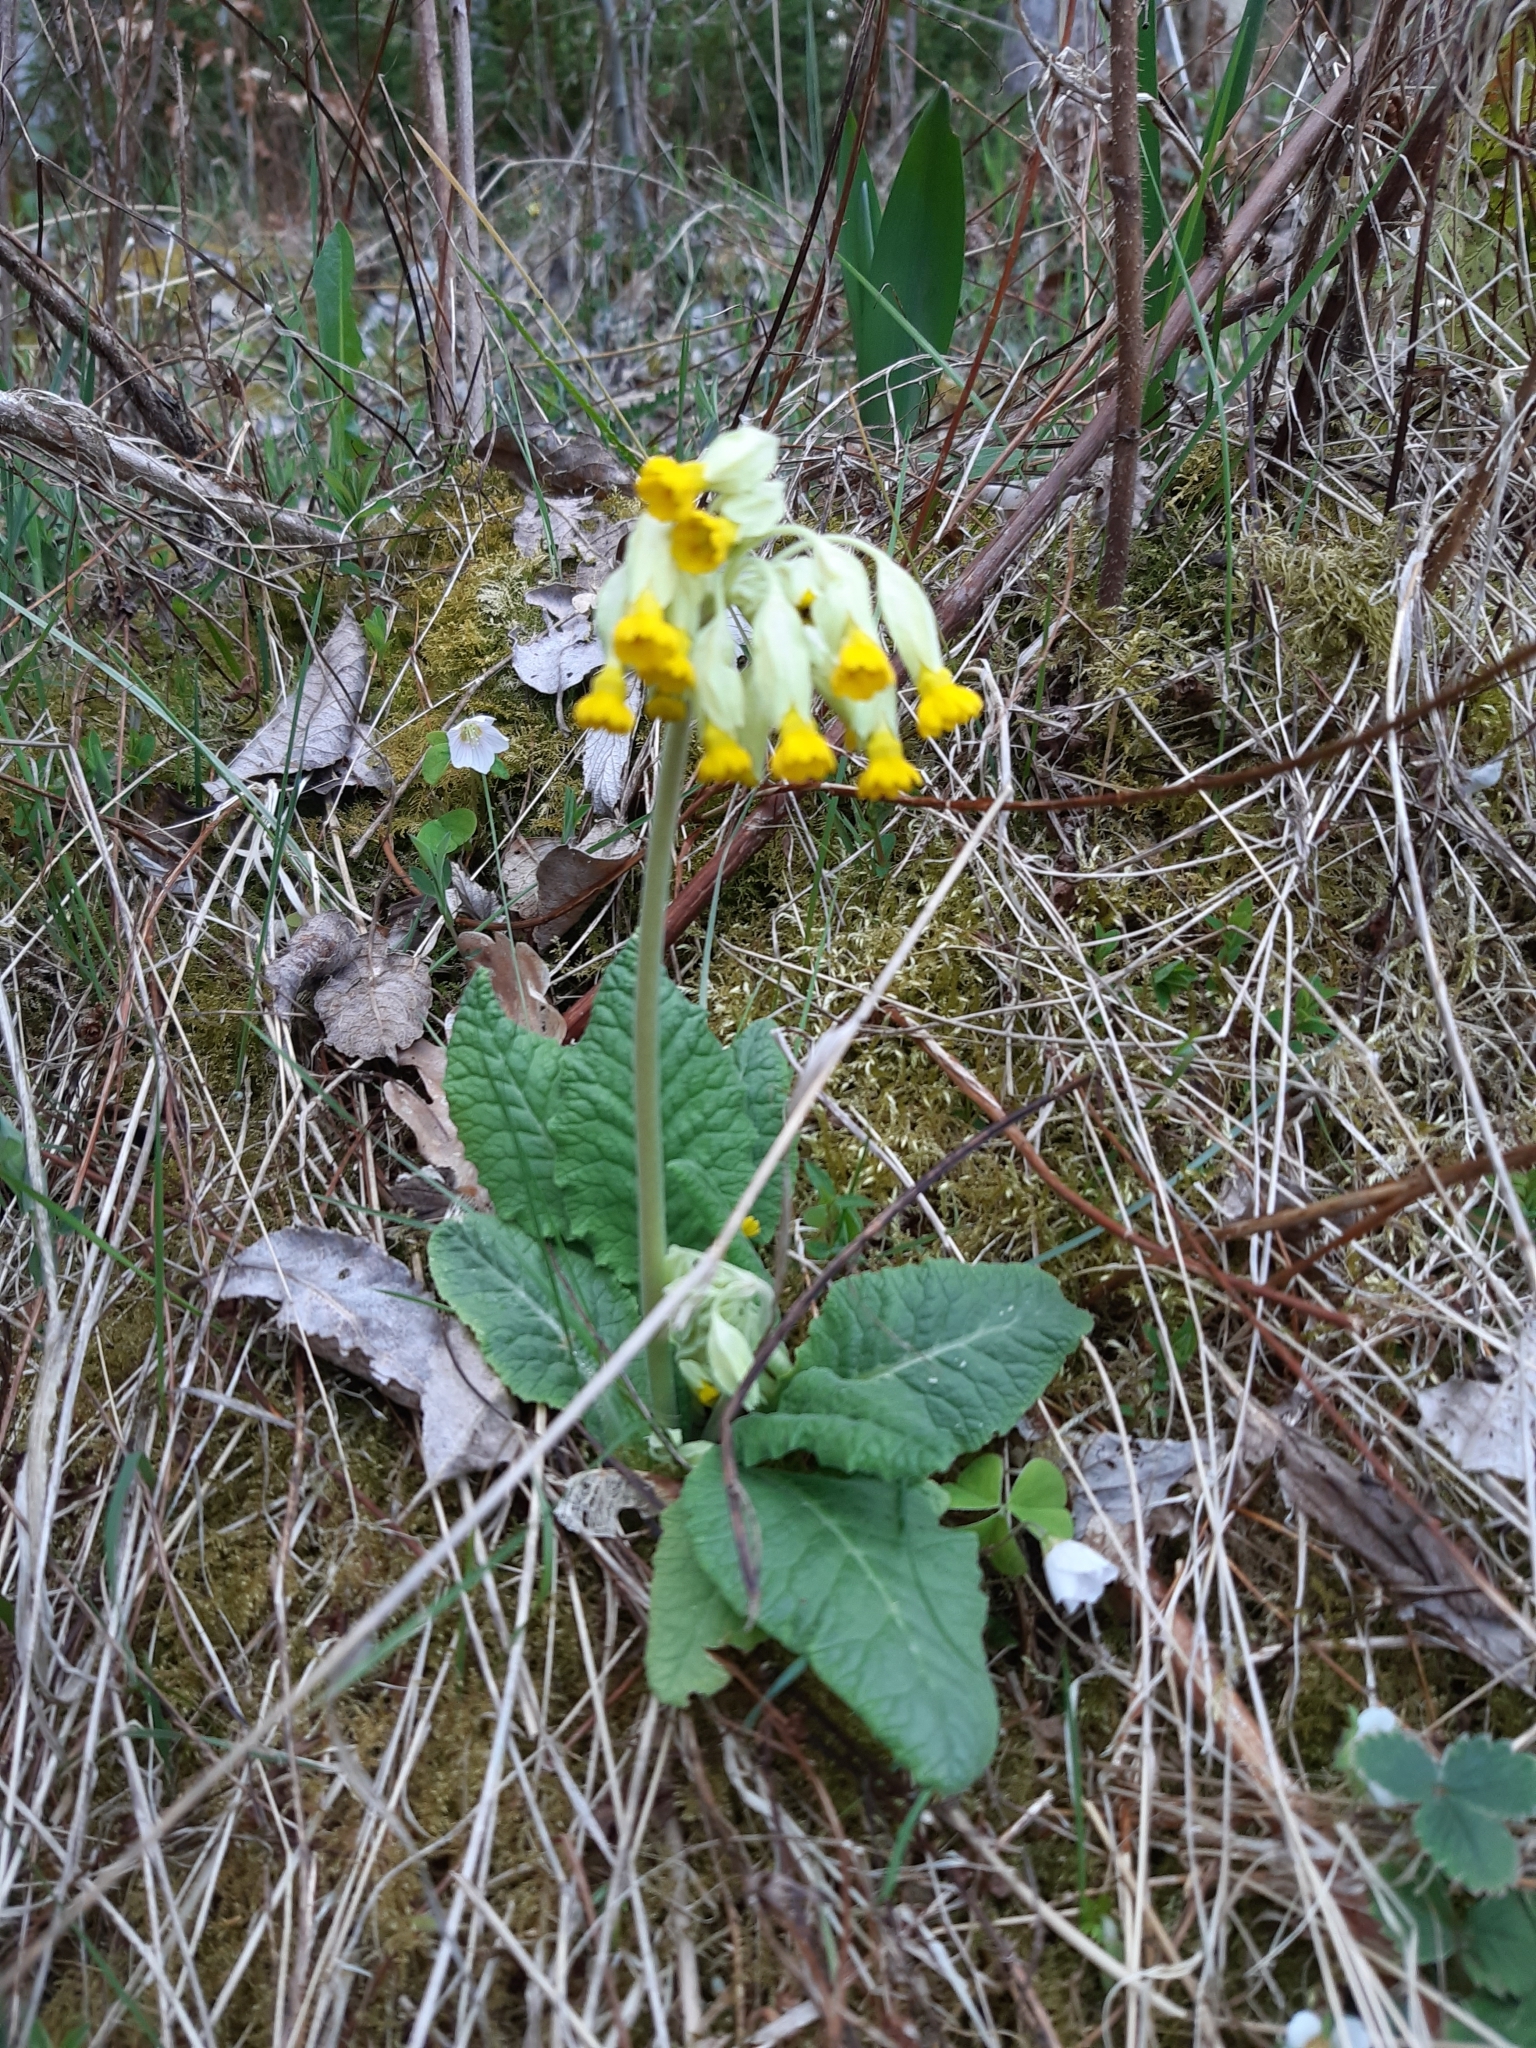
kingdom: Plantae
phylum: Tracheophyta
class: Magnoliopsida
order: Ericales
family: Primulaceae
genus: Primula
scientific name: Primula veris
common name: Cowslip
